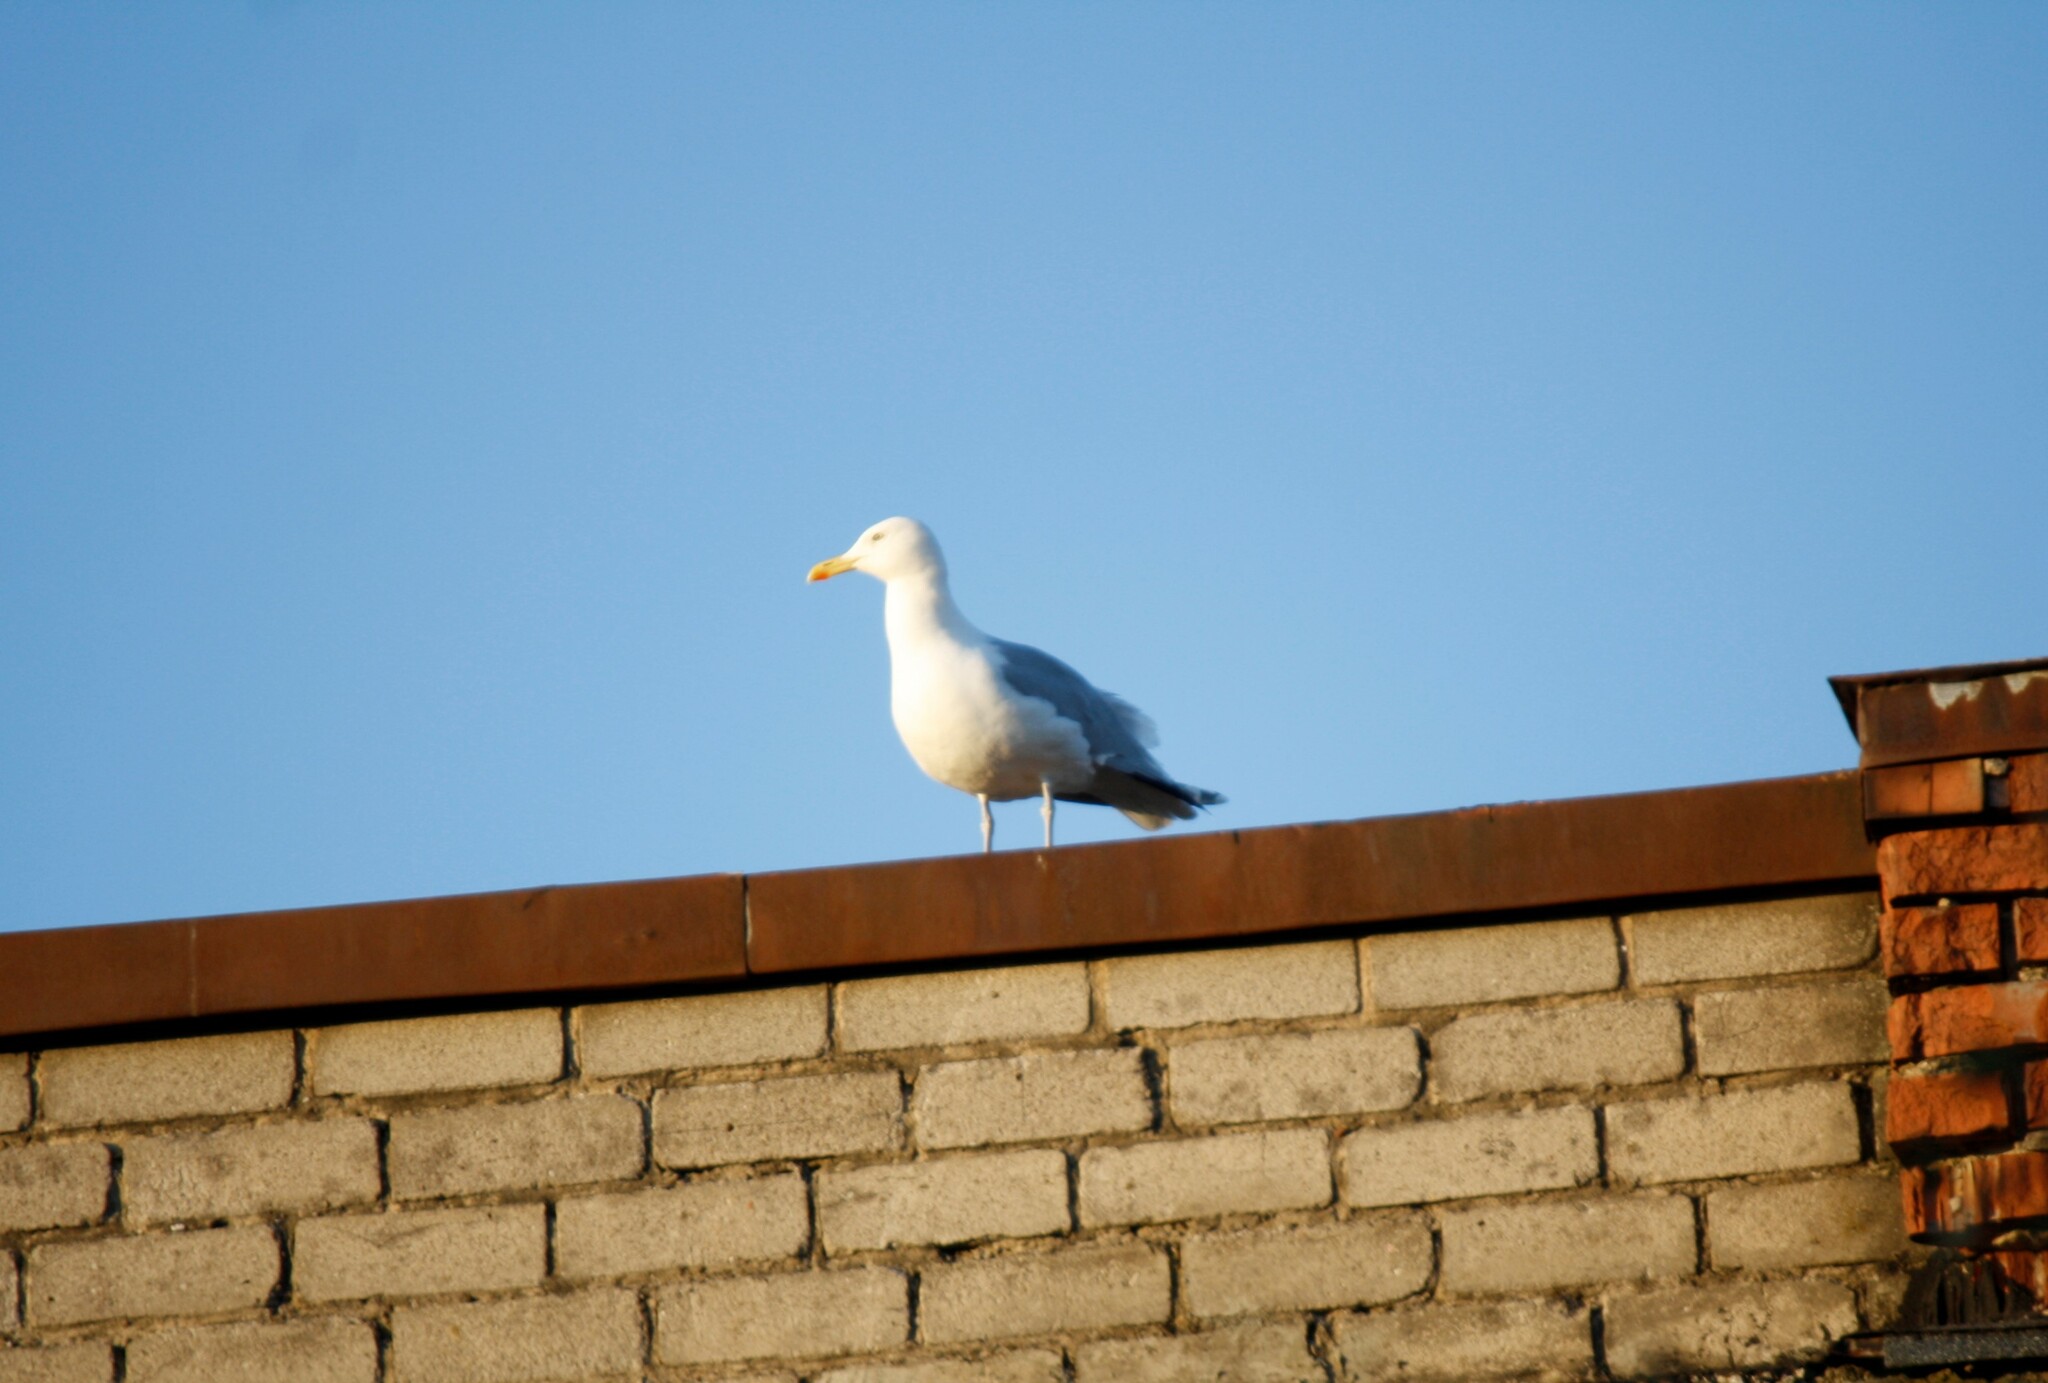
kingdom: Animalia
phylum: Chordata
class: Aves
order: Charadriiformes
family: Laridae
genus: Larus
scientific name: Larus argentatus
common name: Herring gull
